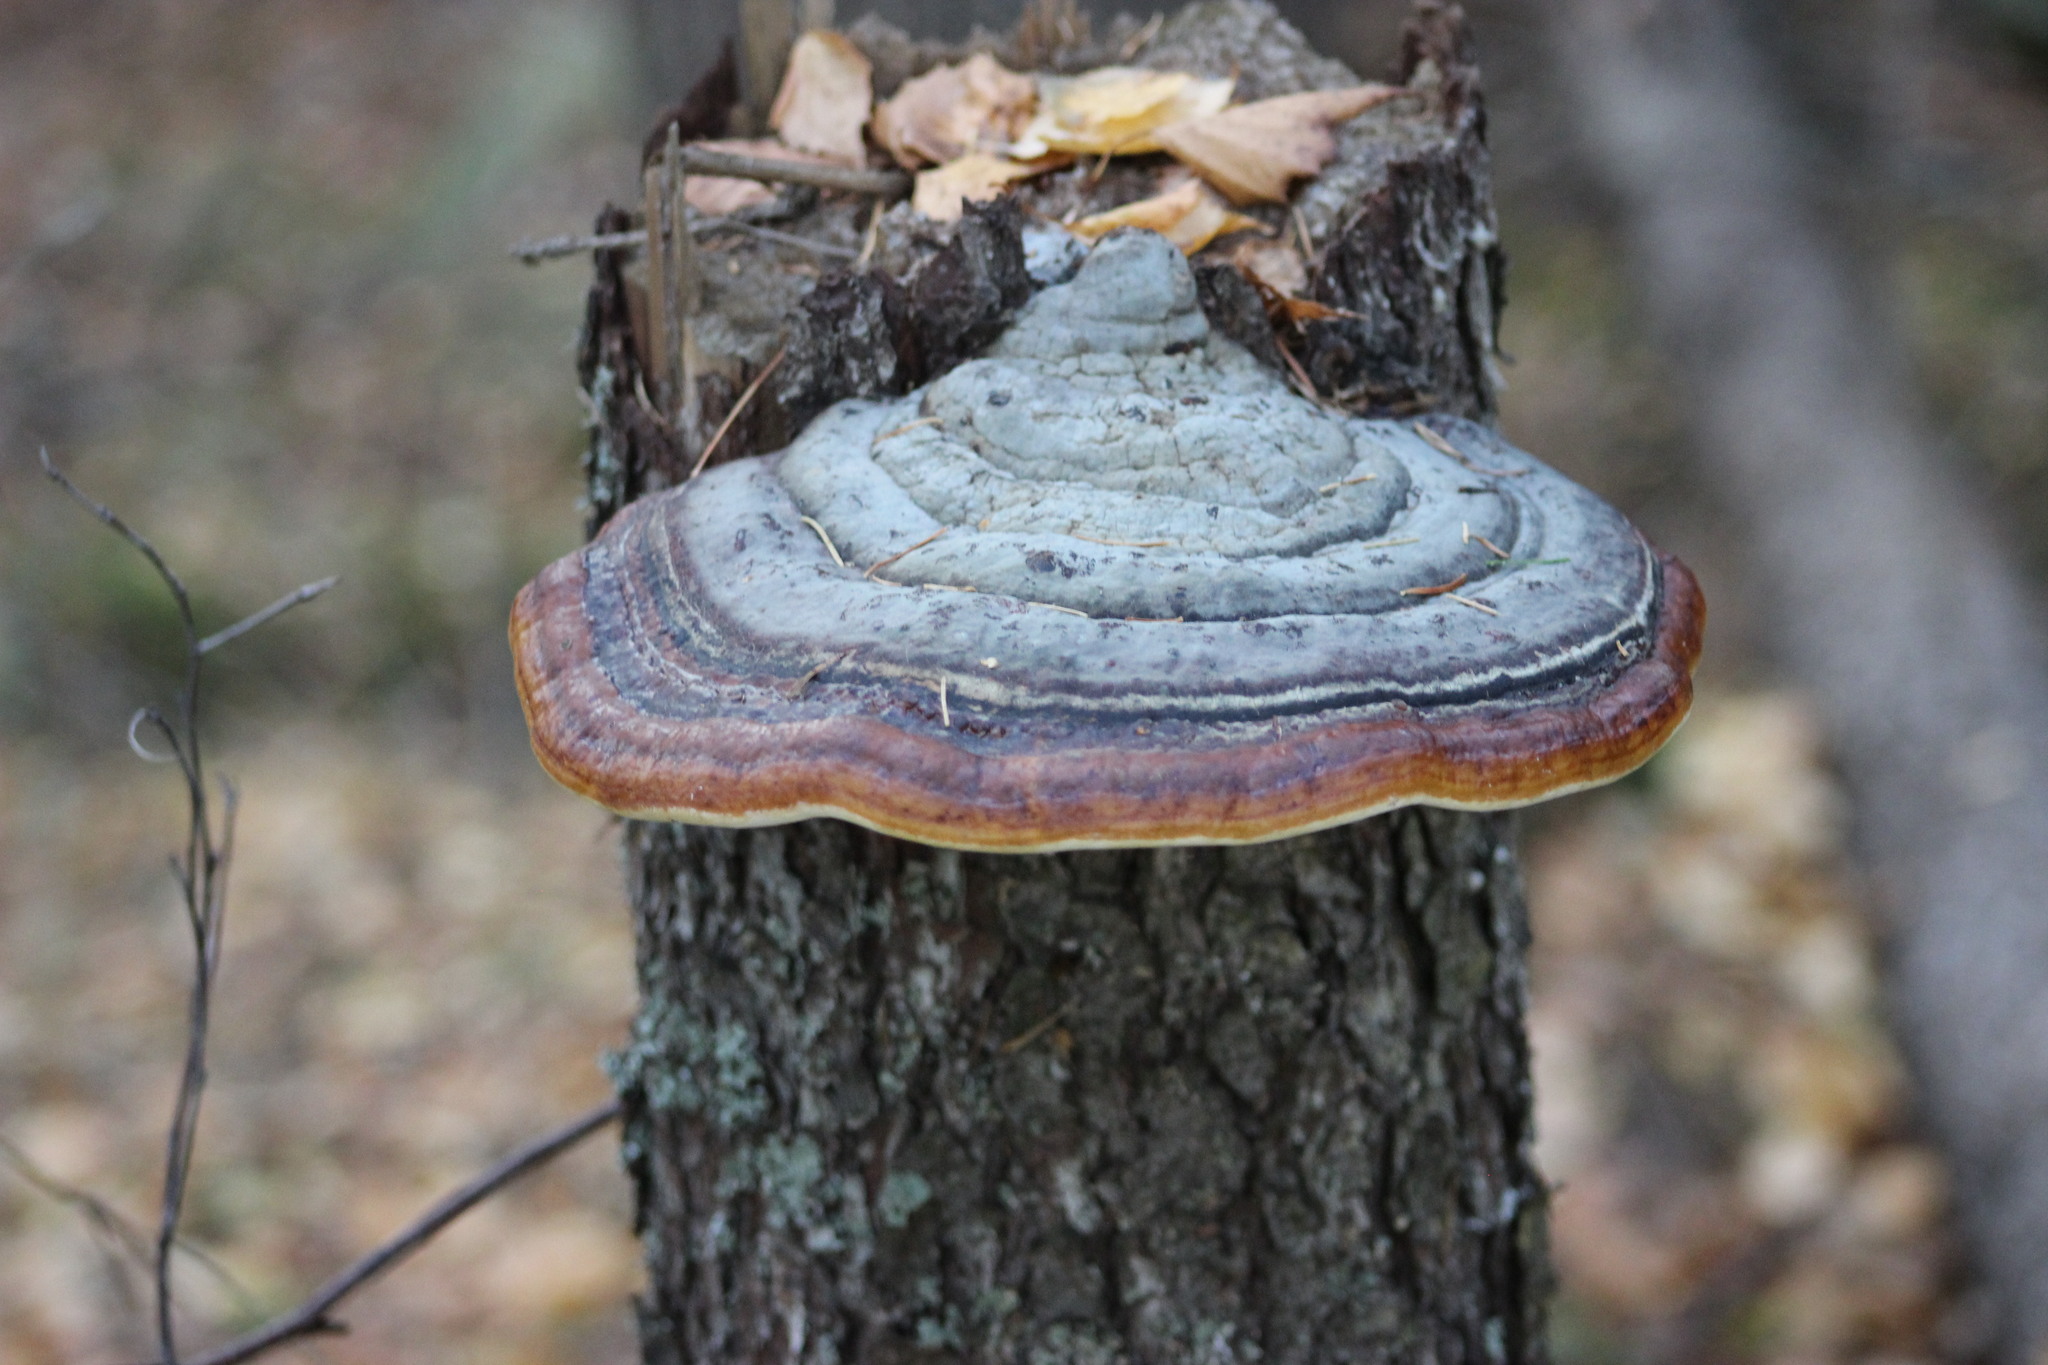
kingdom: Fungi
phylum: Basidiomycota
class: Agaricomycetes
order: Polyporales
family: Fomitopsidaceae
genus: Fomitopsis
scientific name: Fomitopsis pinicola
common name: Red-belted bracket
